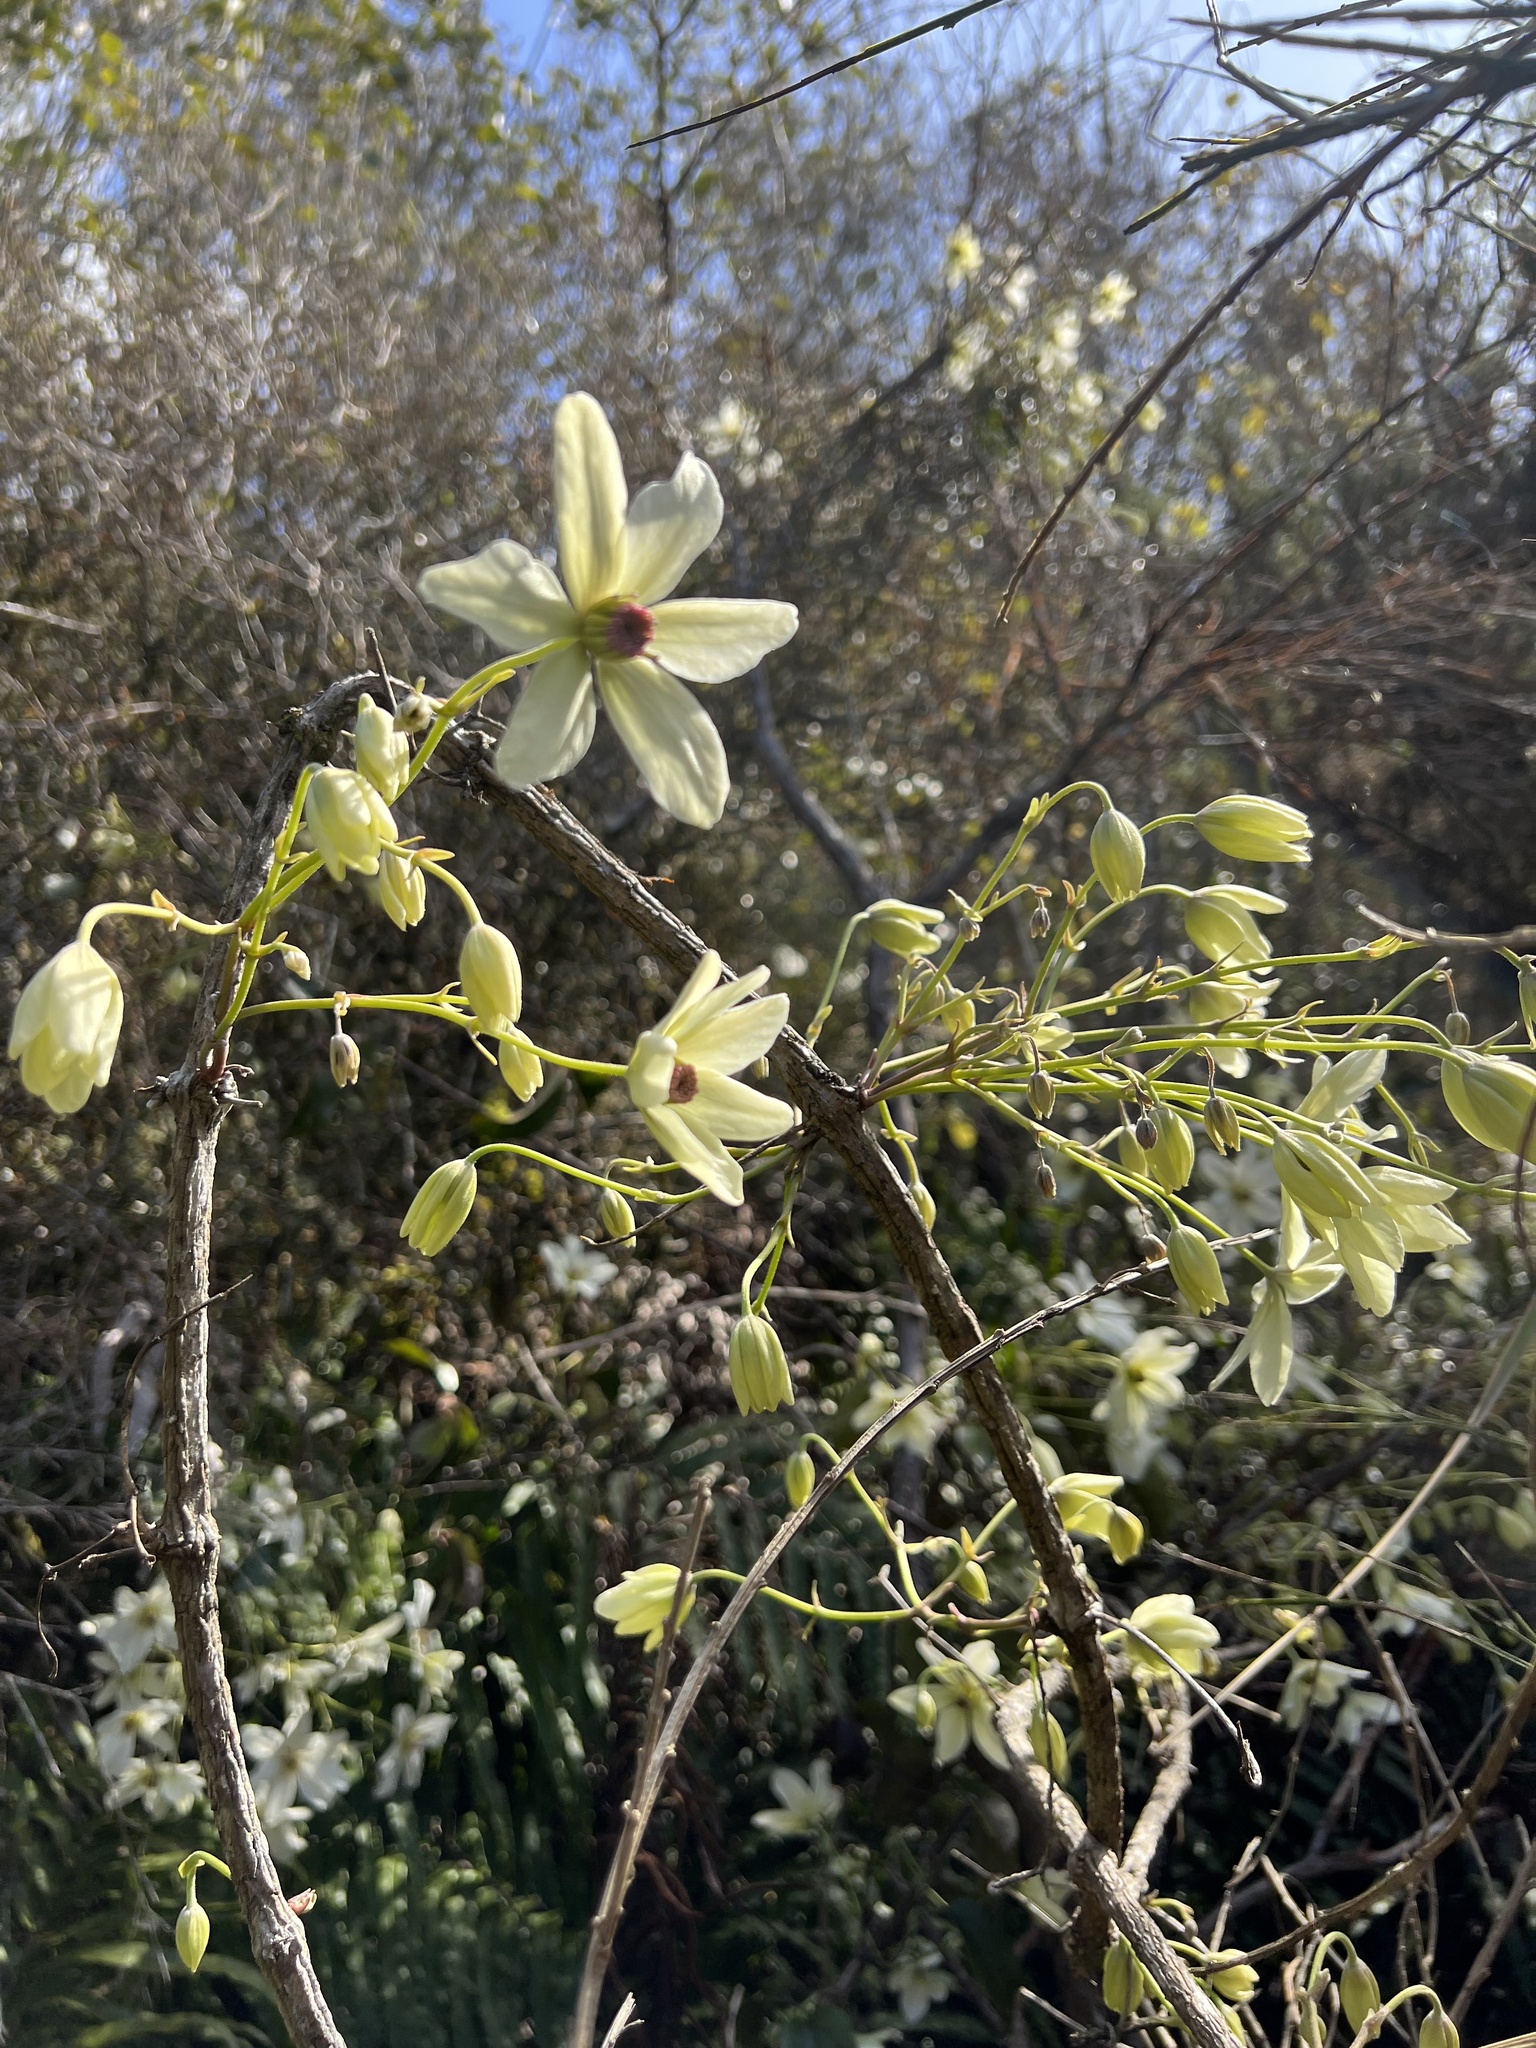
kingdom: Plantae
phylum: Tracheophyta
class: Magnoliopsida
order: Ranunculales
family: Ranunculaceae
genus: Clematis
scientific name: Clematis paniculata
